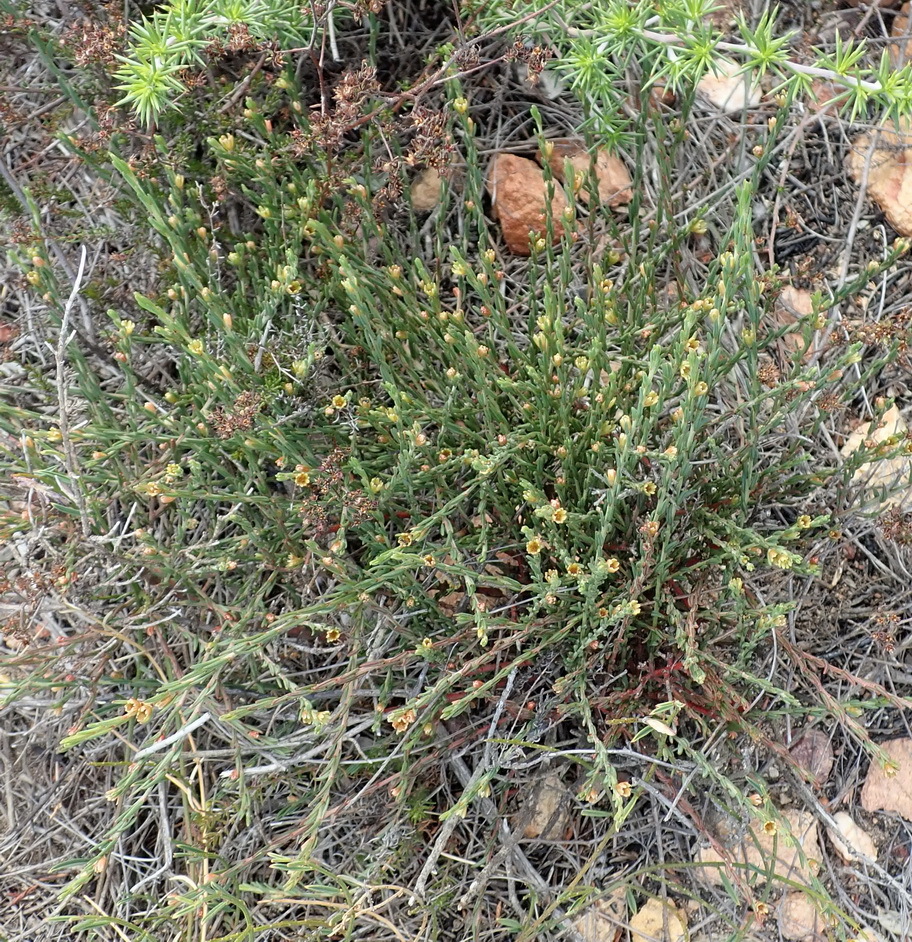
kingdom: Plantae
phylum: Tracheophyta
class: Magnoliopsida
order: Malpighiales
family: Peraceae
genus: Clutia
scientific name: Clutia ericoides
